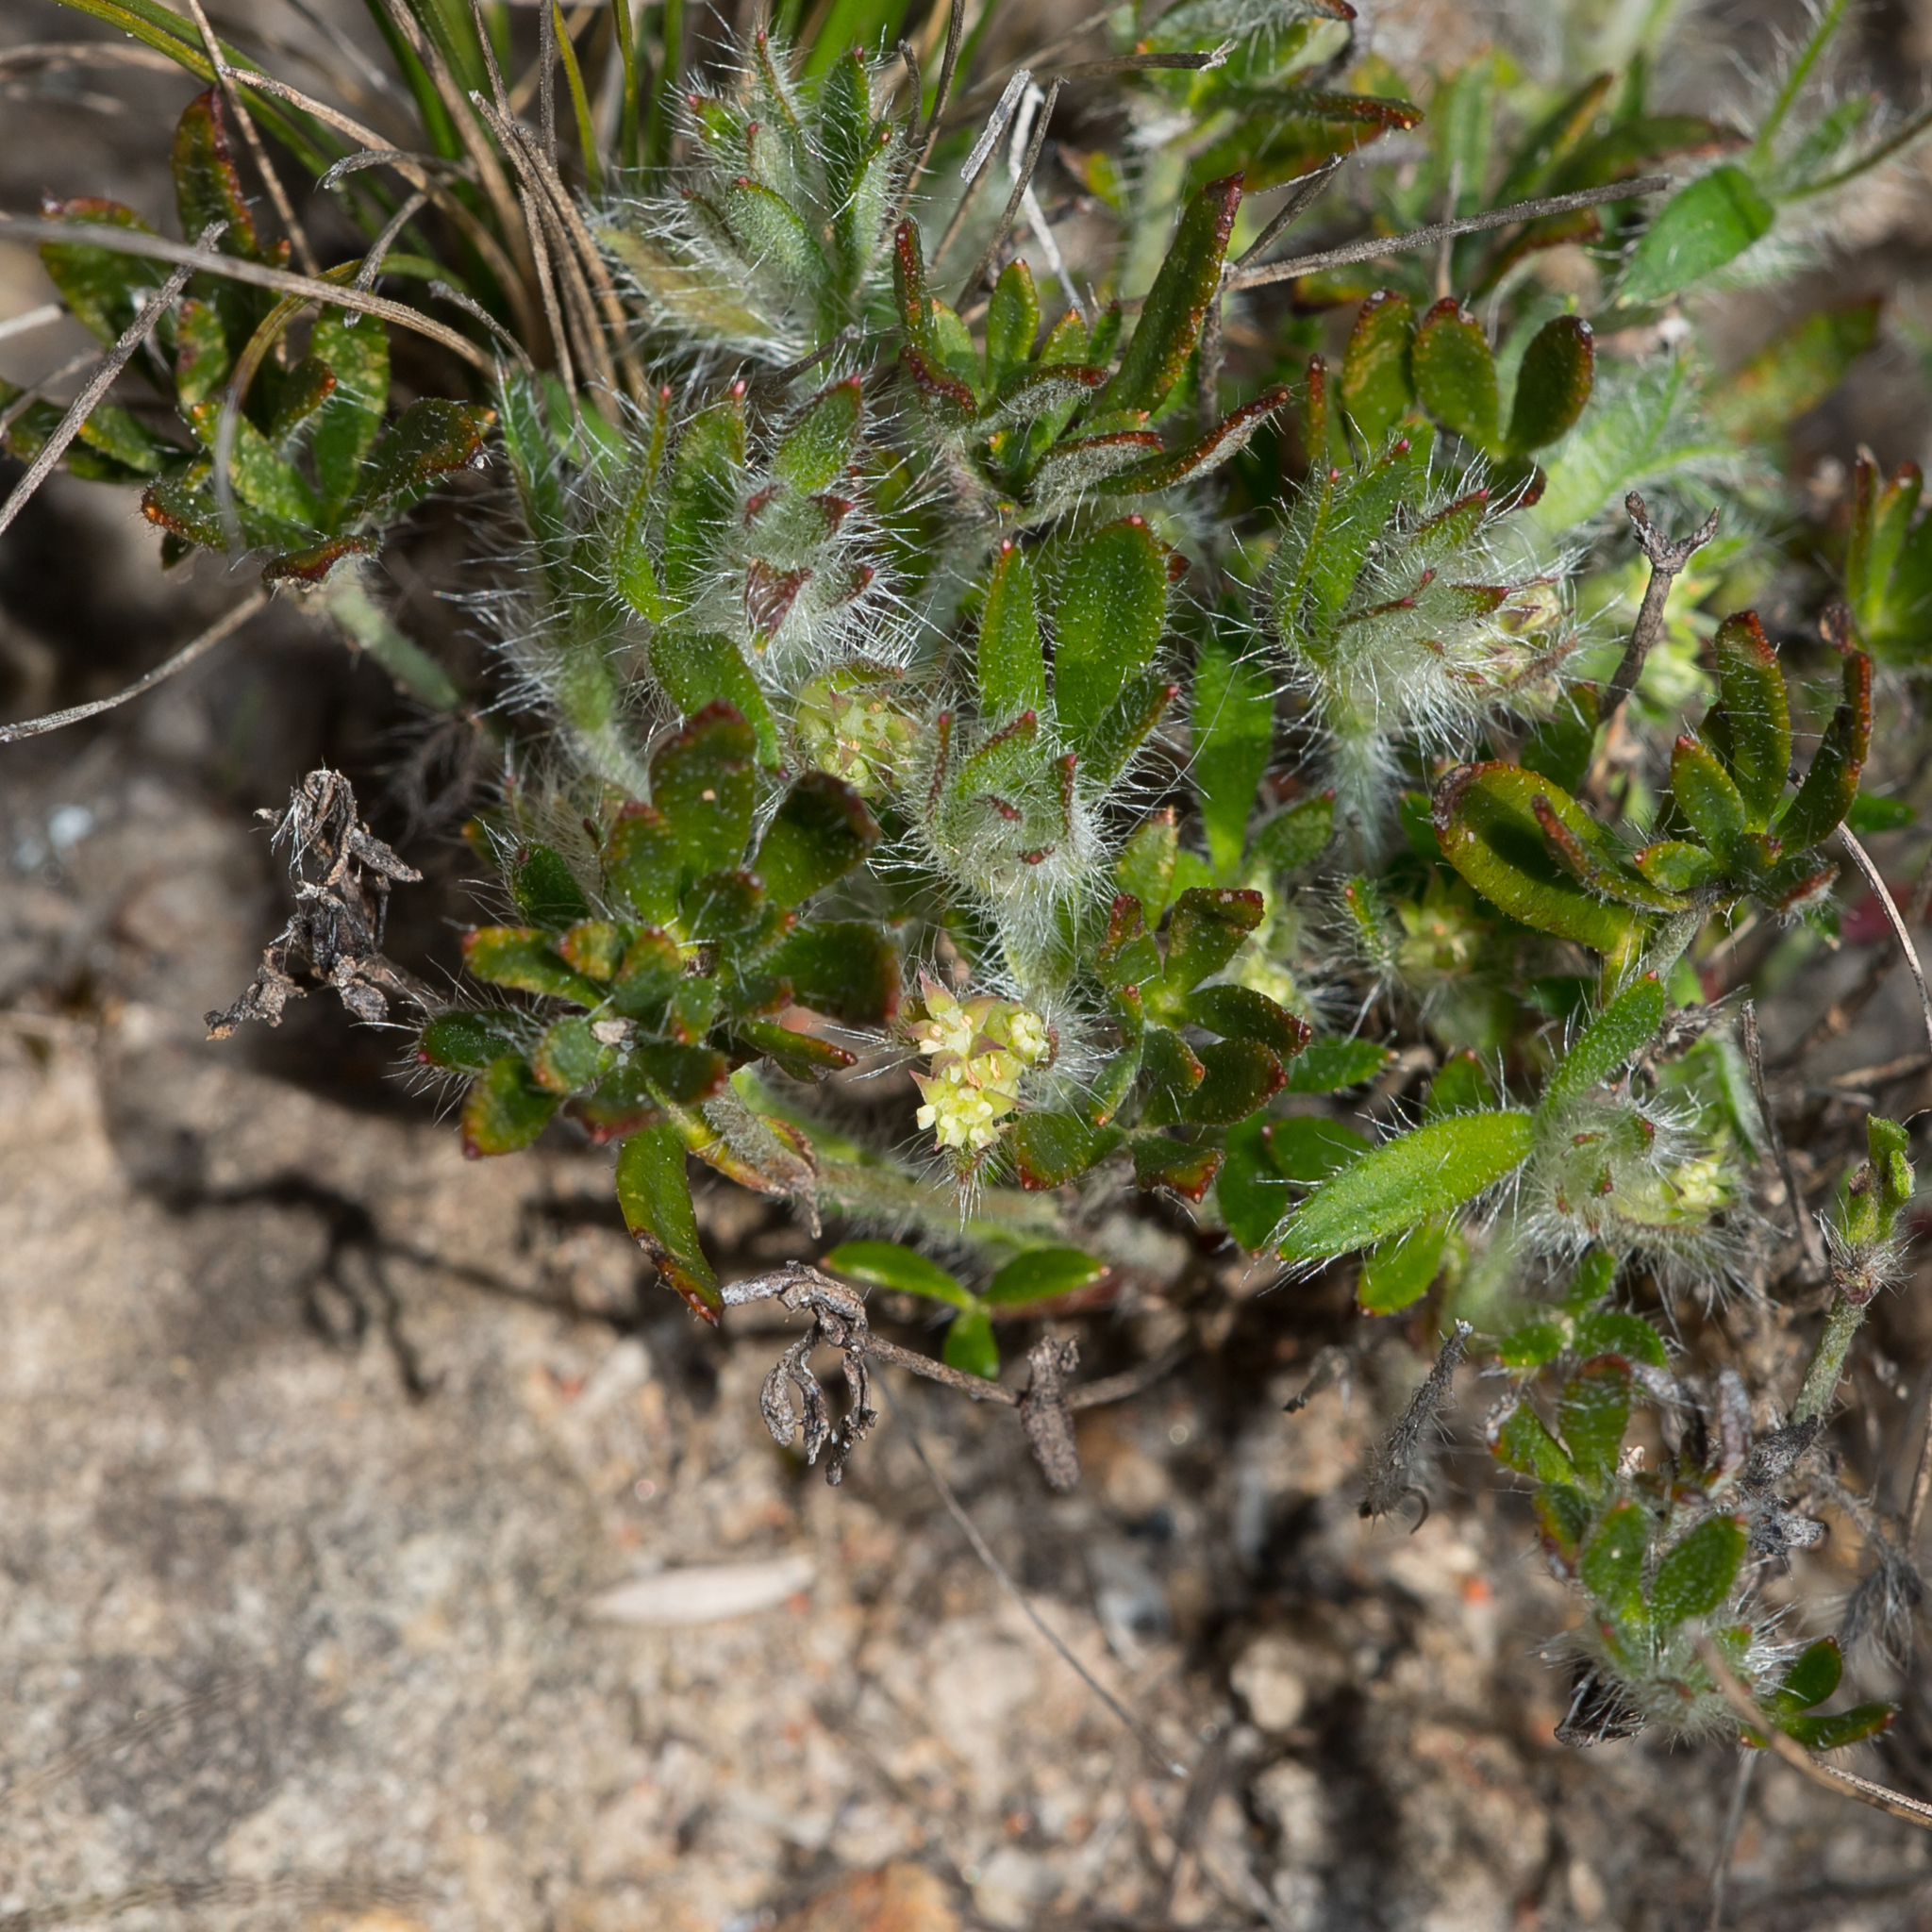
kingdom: Plantae
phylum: Tracheophyta
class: Magnoliopsida
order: Apiales
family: Apiaceae
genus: Xanthosia
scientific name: Xanthosia huegelii
